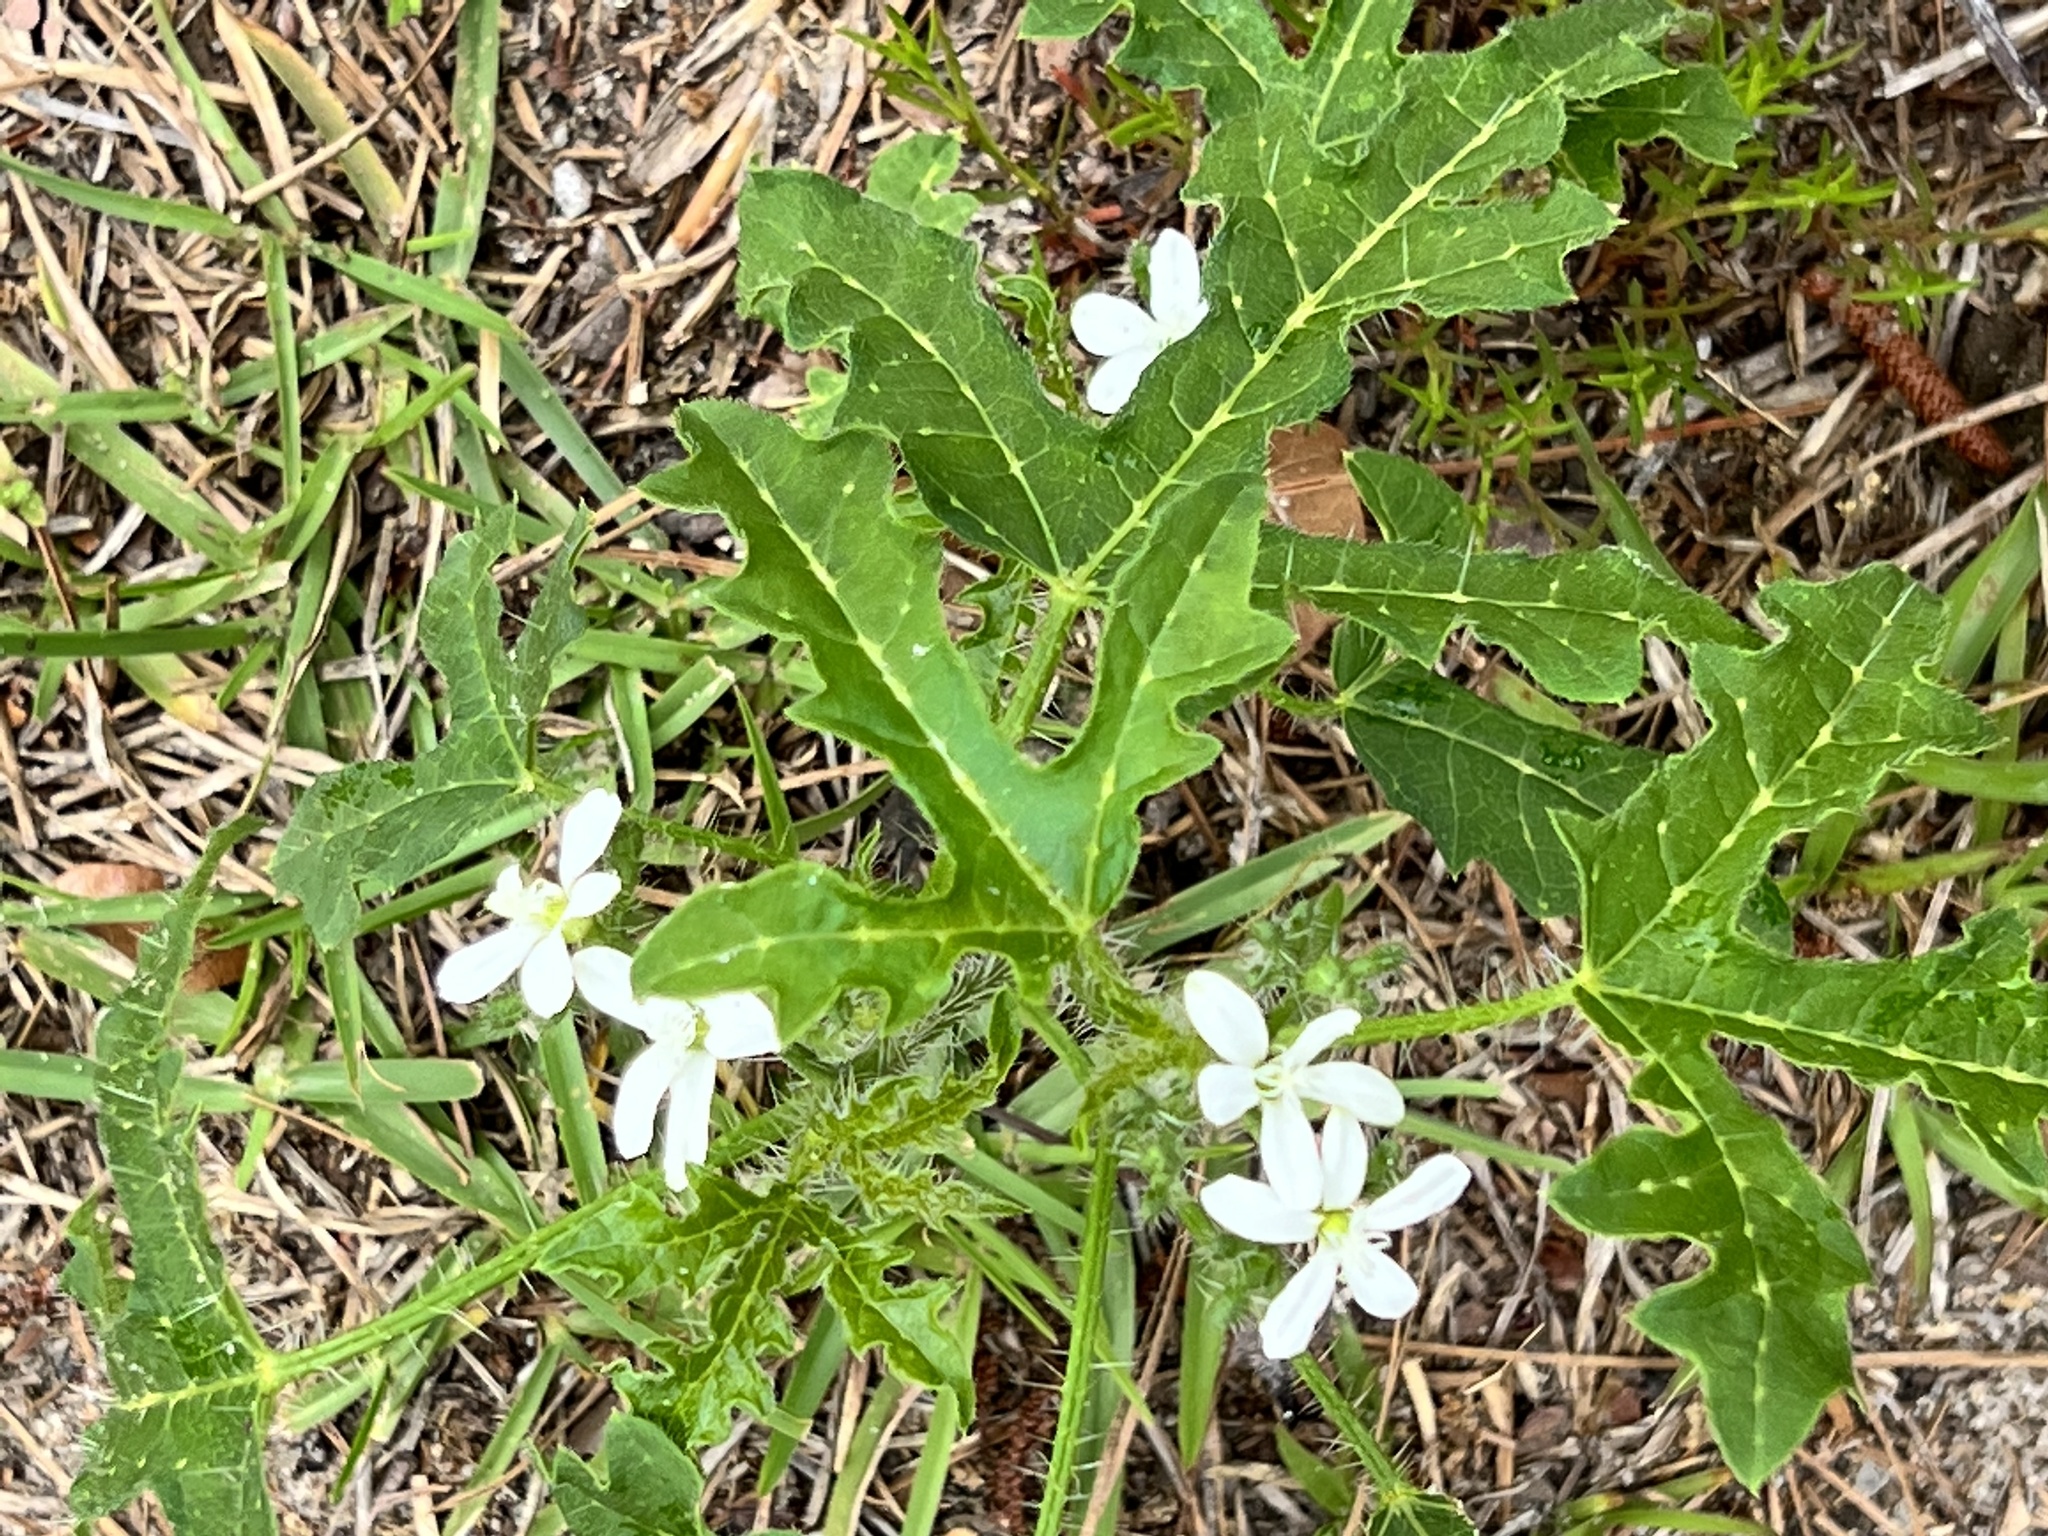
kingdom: Plantae
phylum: Tracheophyta
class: Magnoliopsida
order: Malpighiales
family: Euphorbiaceae
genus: Cnidoscolus
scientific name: Cnidoscolus stimulosus
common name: Bull-nettle
